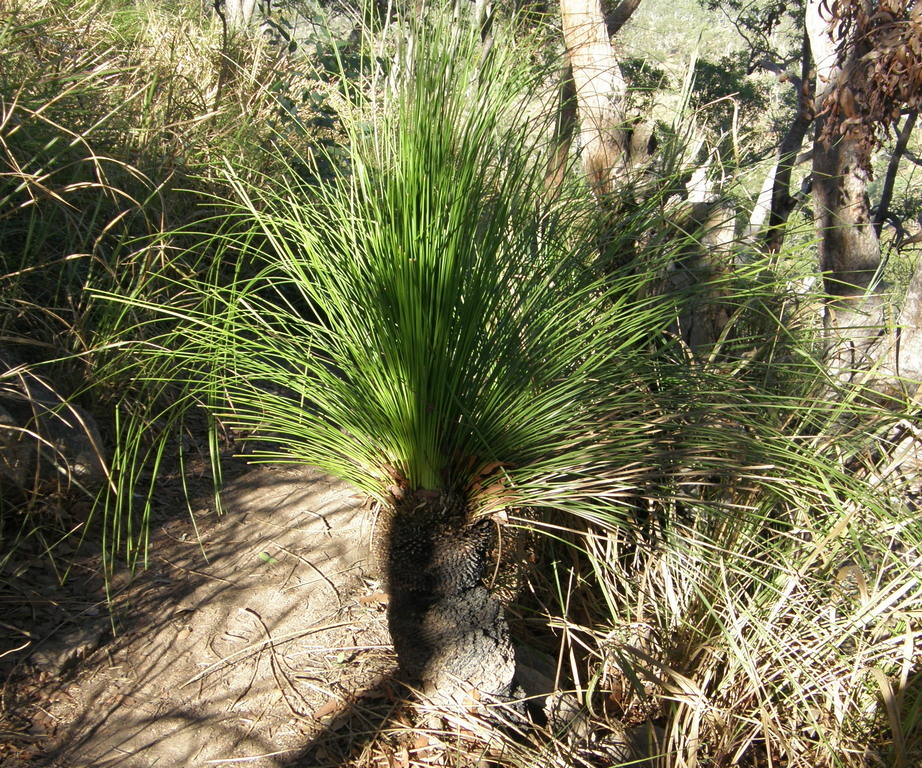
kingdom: Plantae
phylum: Tracheophyta
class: Liliopsida
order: Asparagales
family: Asphodelaceae
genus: Xanthorrhoea
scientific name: Xanthorrhoea latifolia
